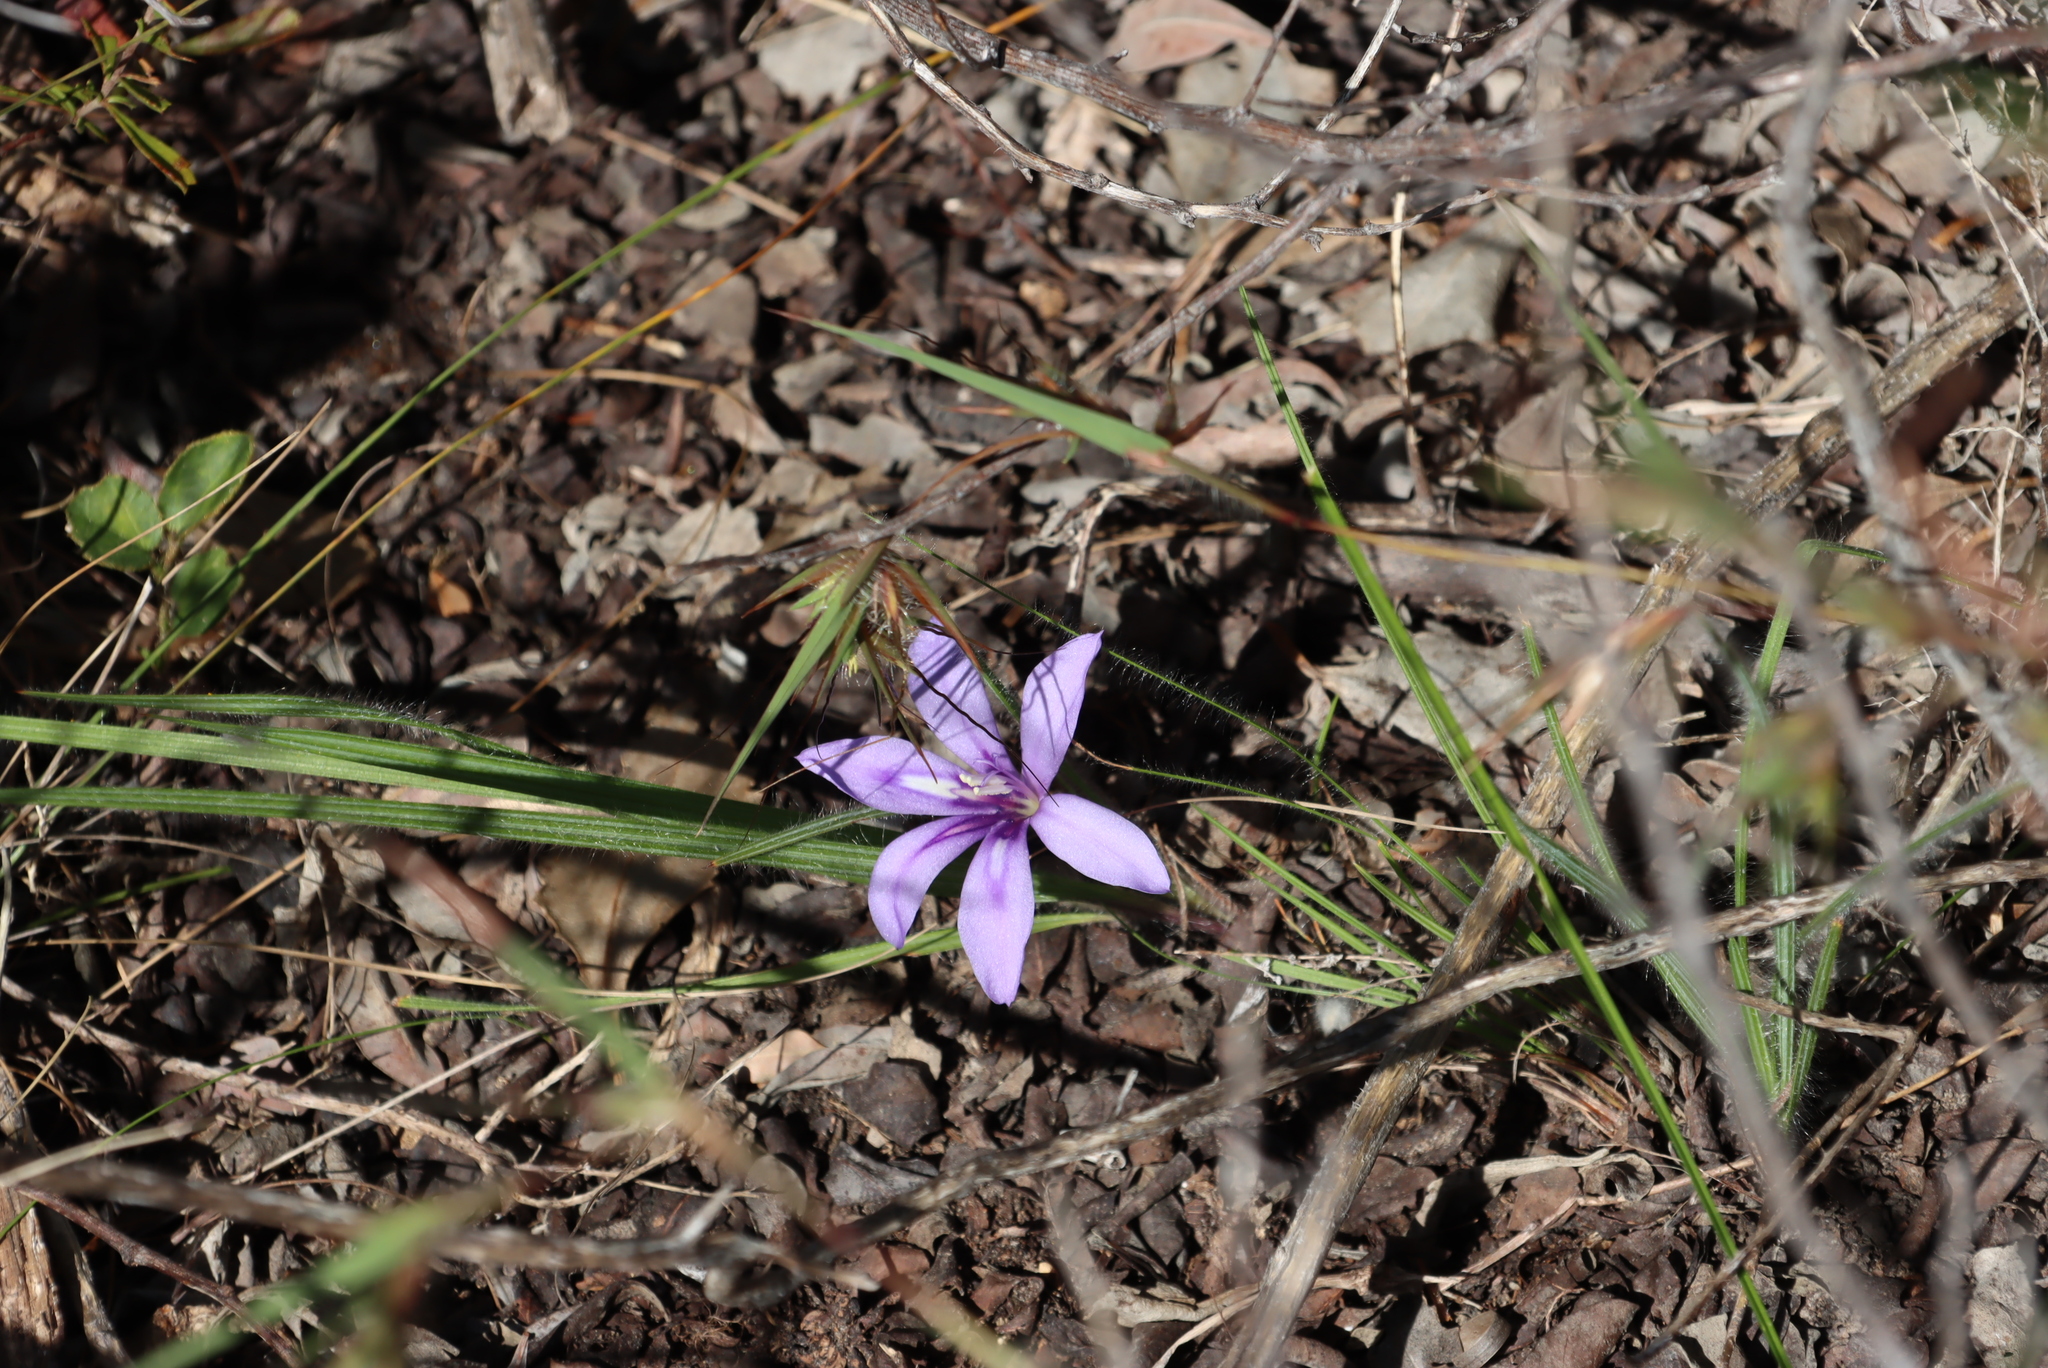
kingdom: Plantae
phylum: Tracheophyta
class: Liliopsida
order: Asparagales
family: Iridaceae
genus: Babiana
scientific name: Babiana sambucina
